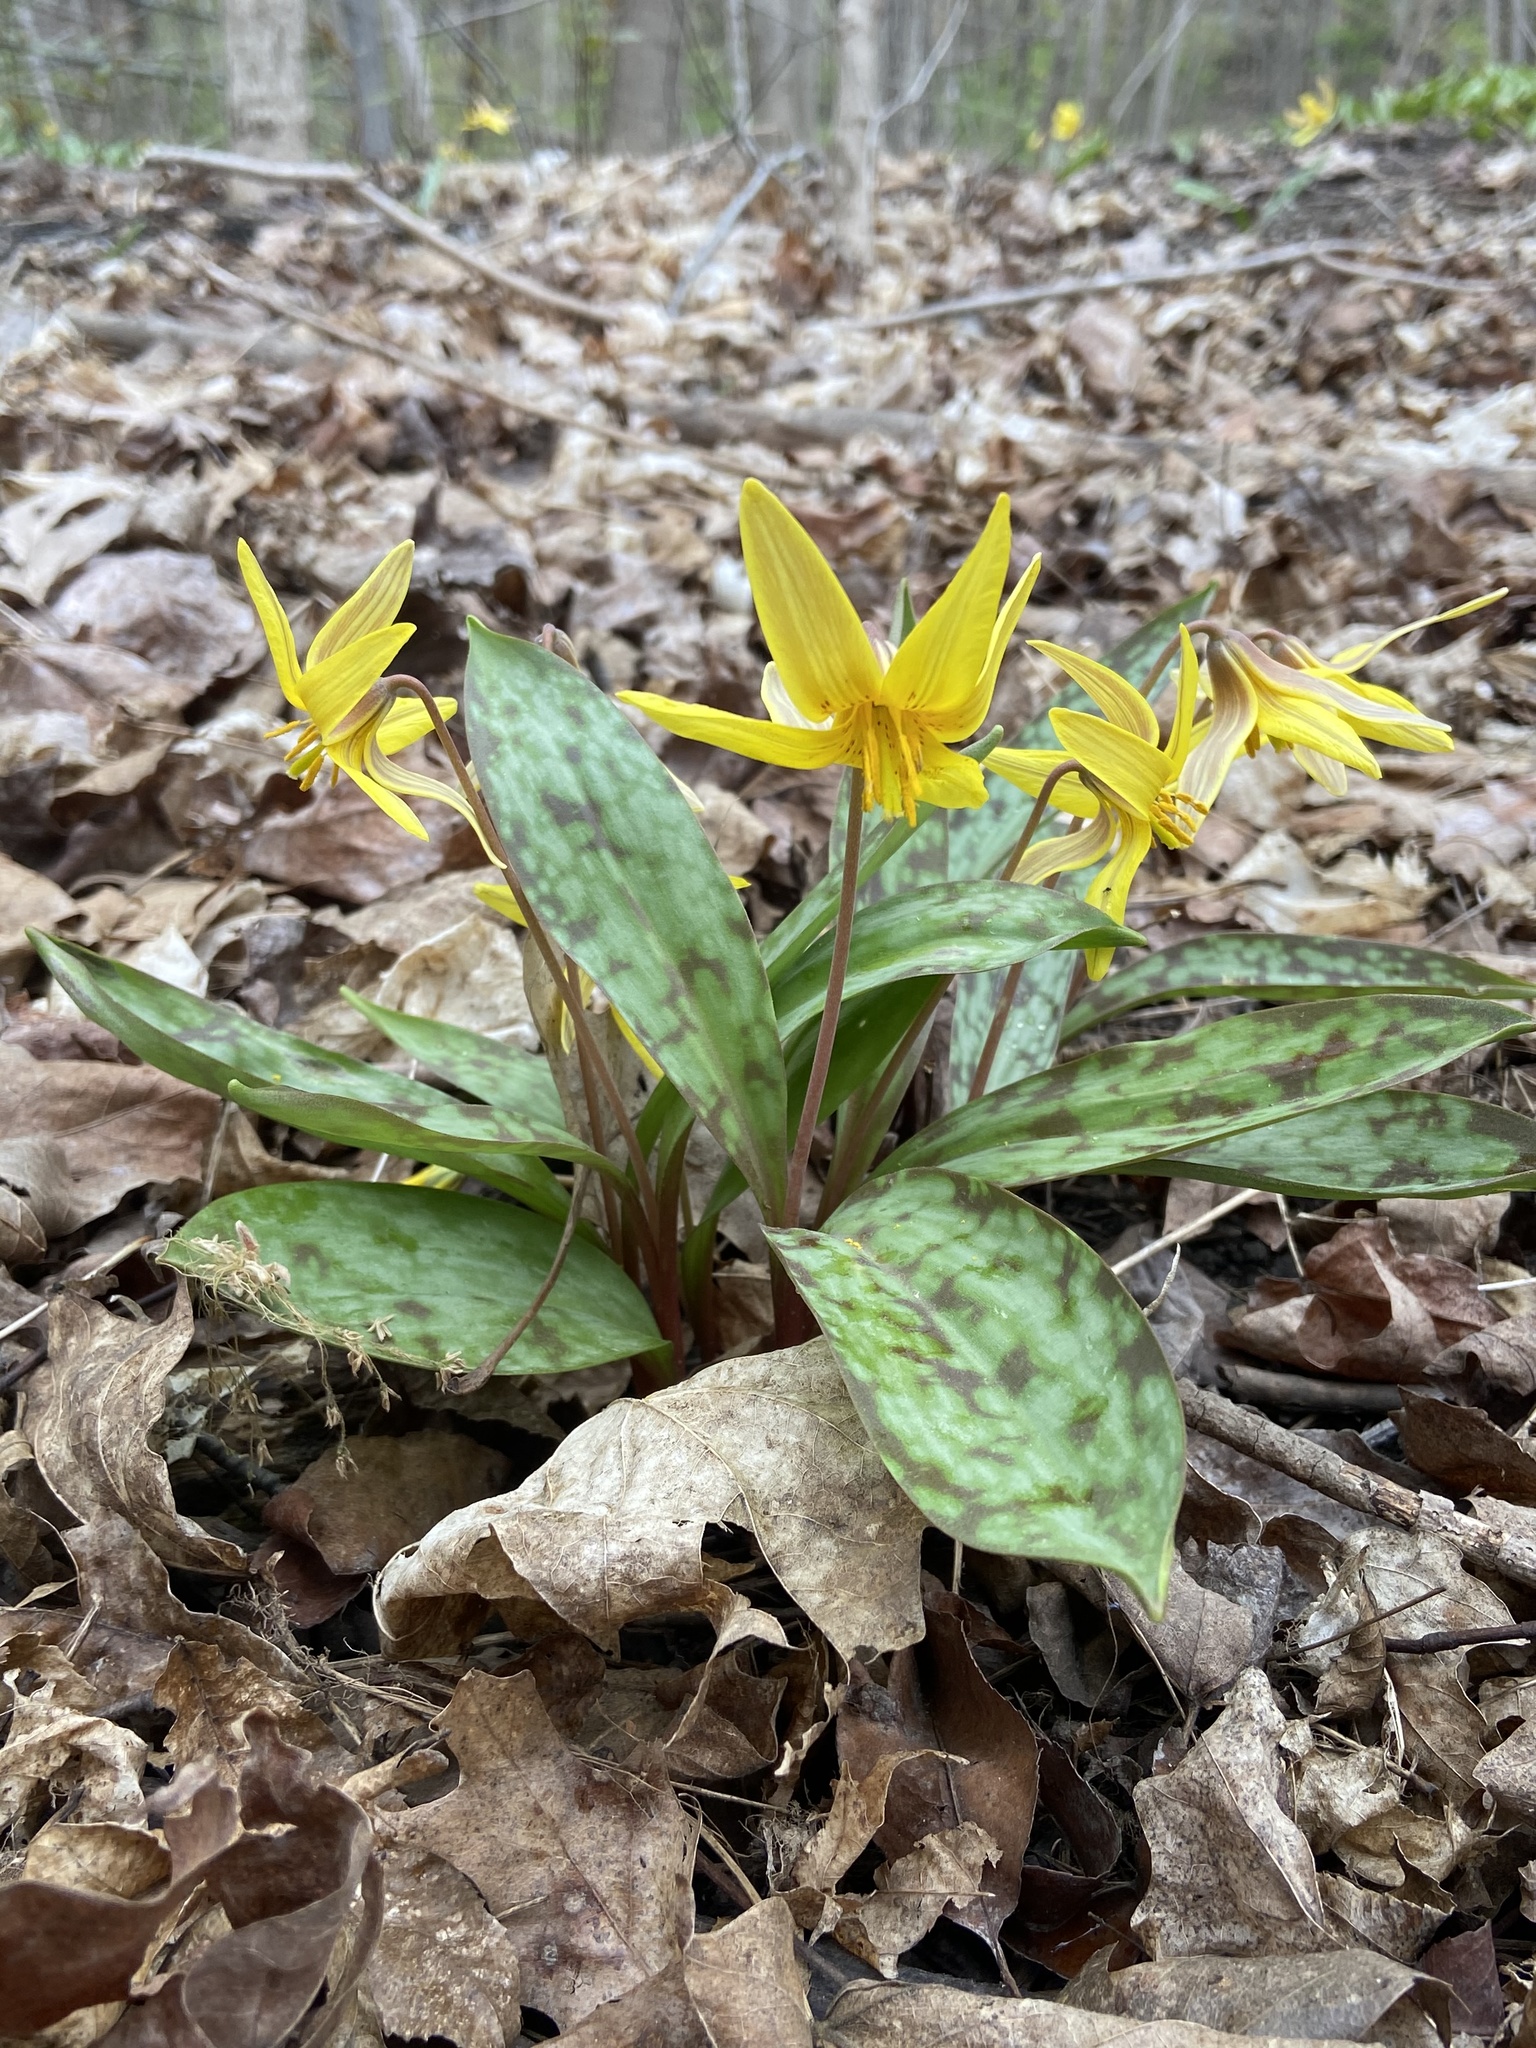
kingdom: Plantae
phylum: Tracheophyta
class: Liliopsida
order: Liliales
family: Liliaceae
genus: Erythronium
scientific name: Erythronium americanum
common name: Yellow adder's-tongue
